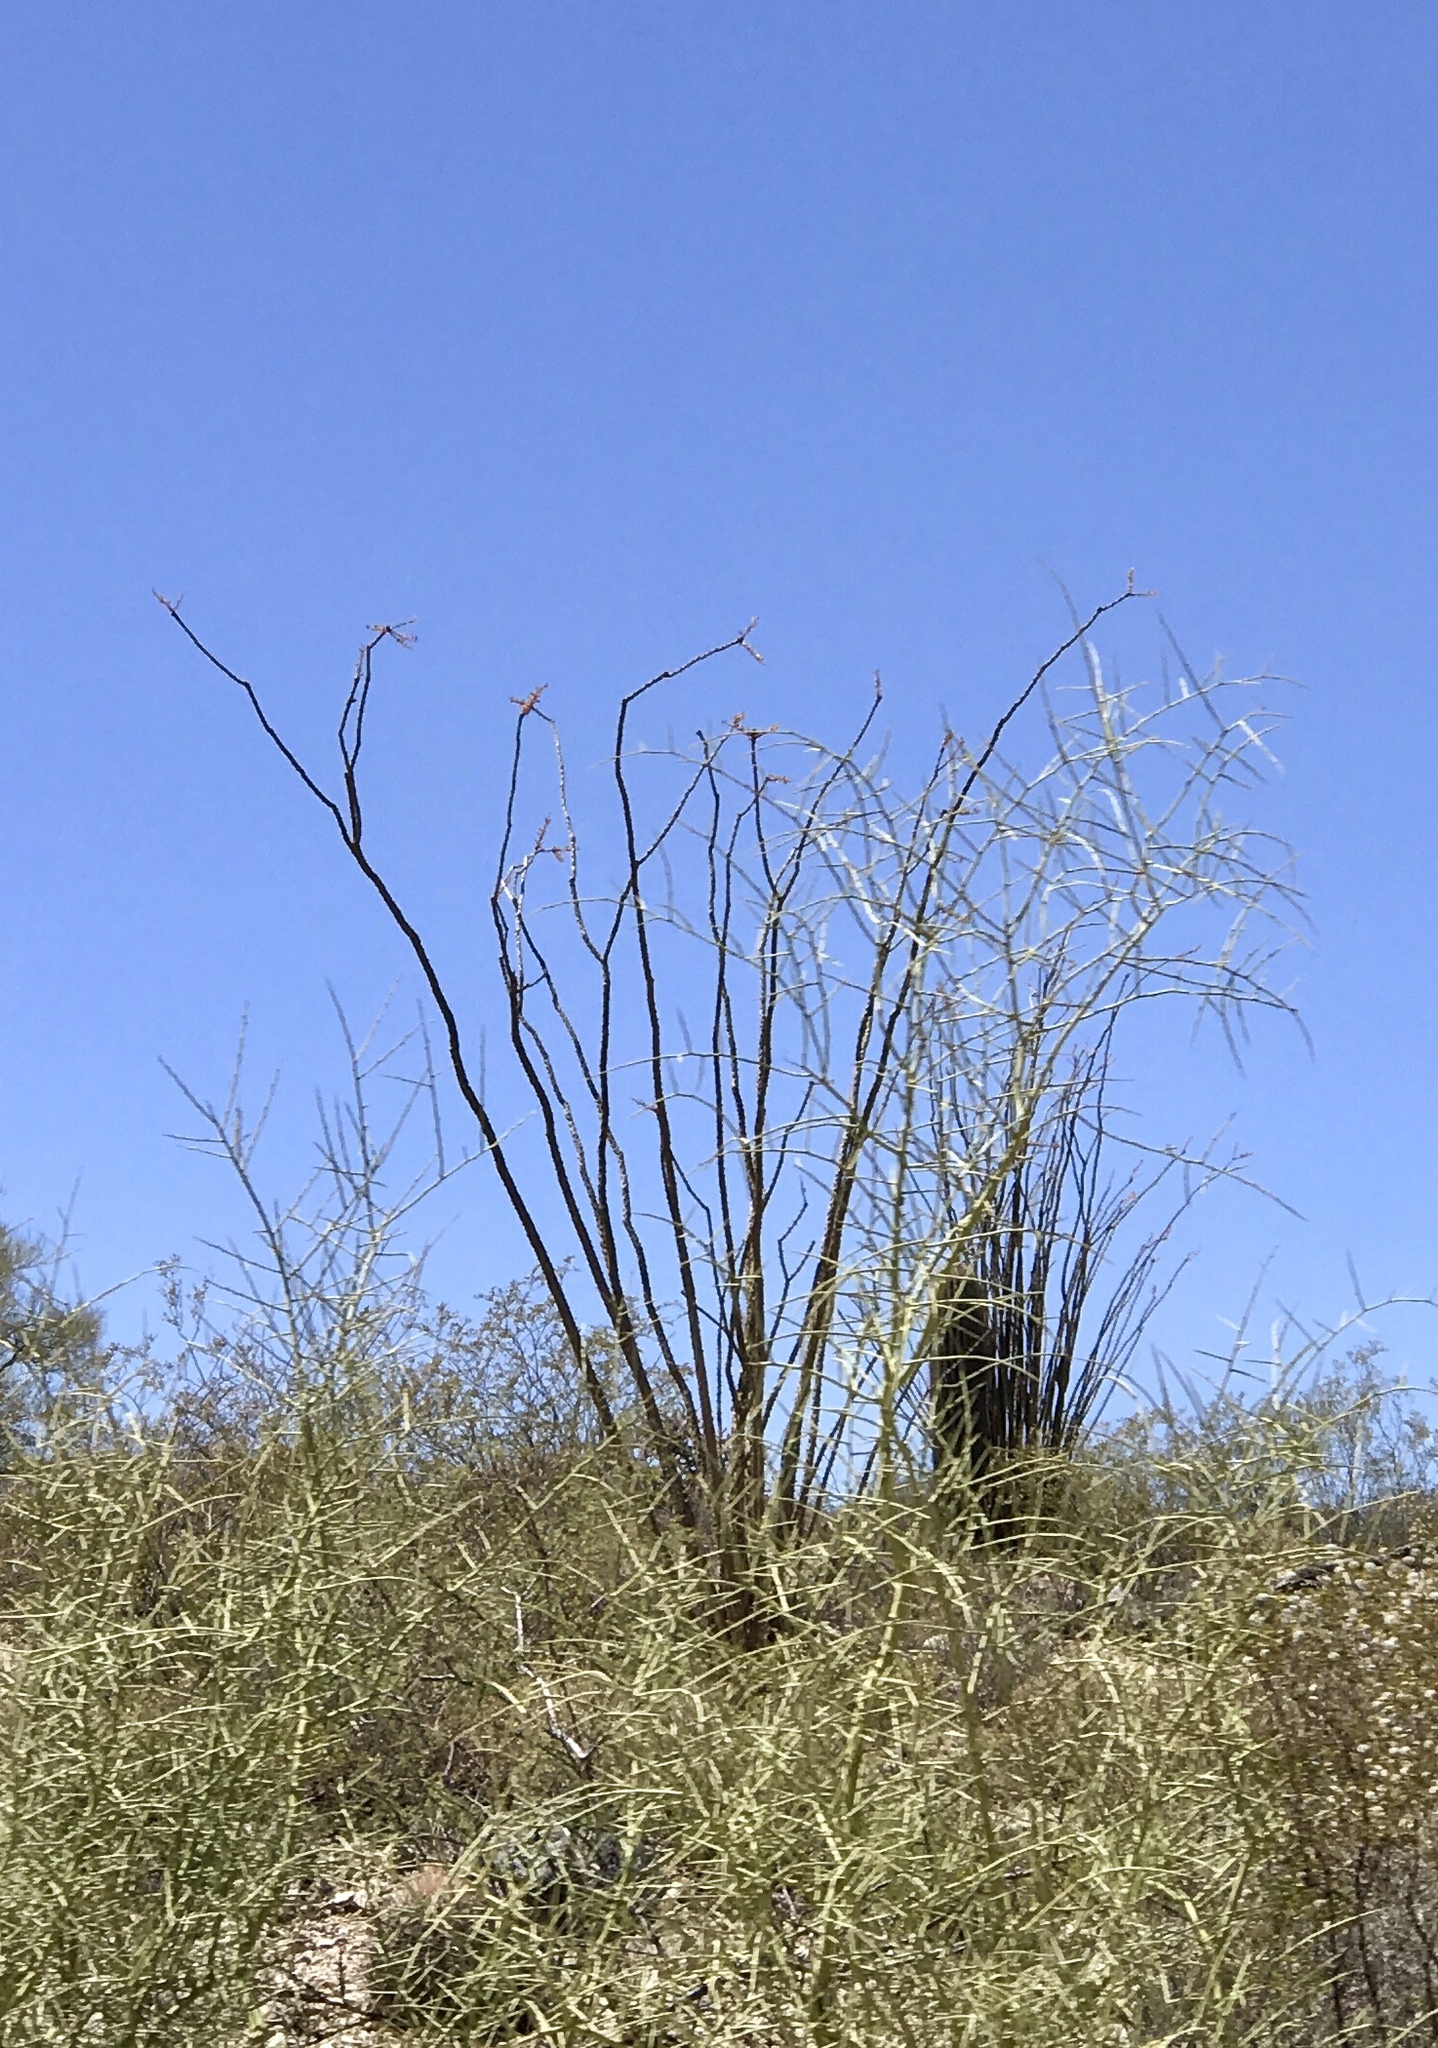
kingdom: Plantae
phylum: Tracheophyta
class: Magnoliopsida
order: Ericales
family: Fouquieriaceae
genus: Fouquieria
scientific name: Fouquieria splendens
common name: Vine-cactus
